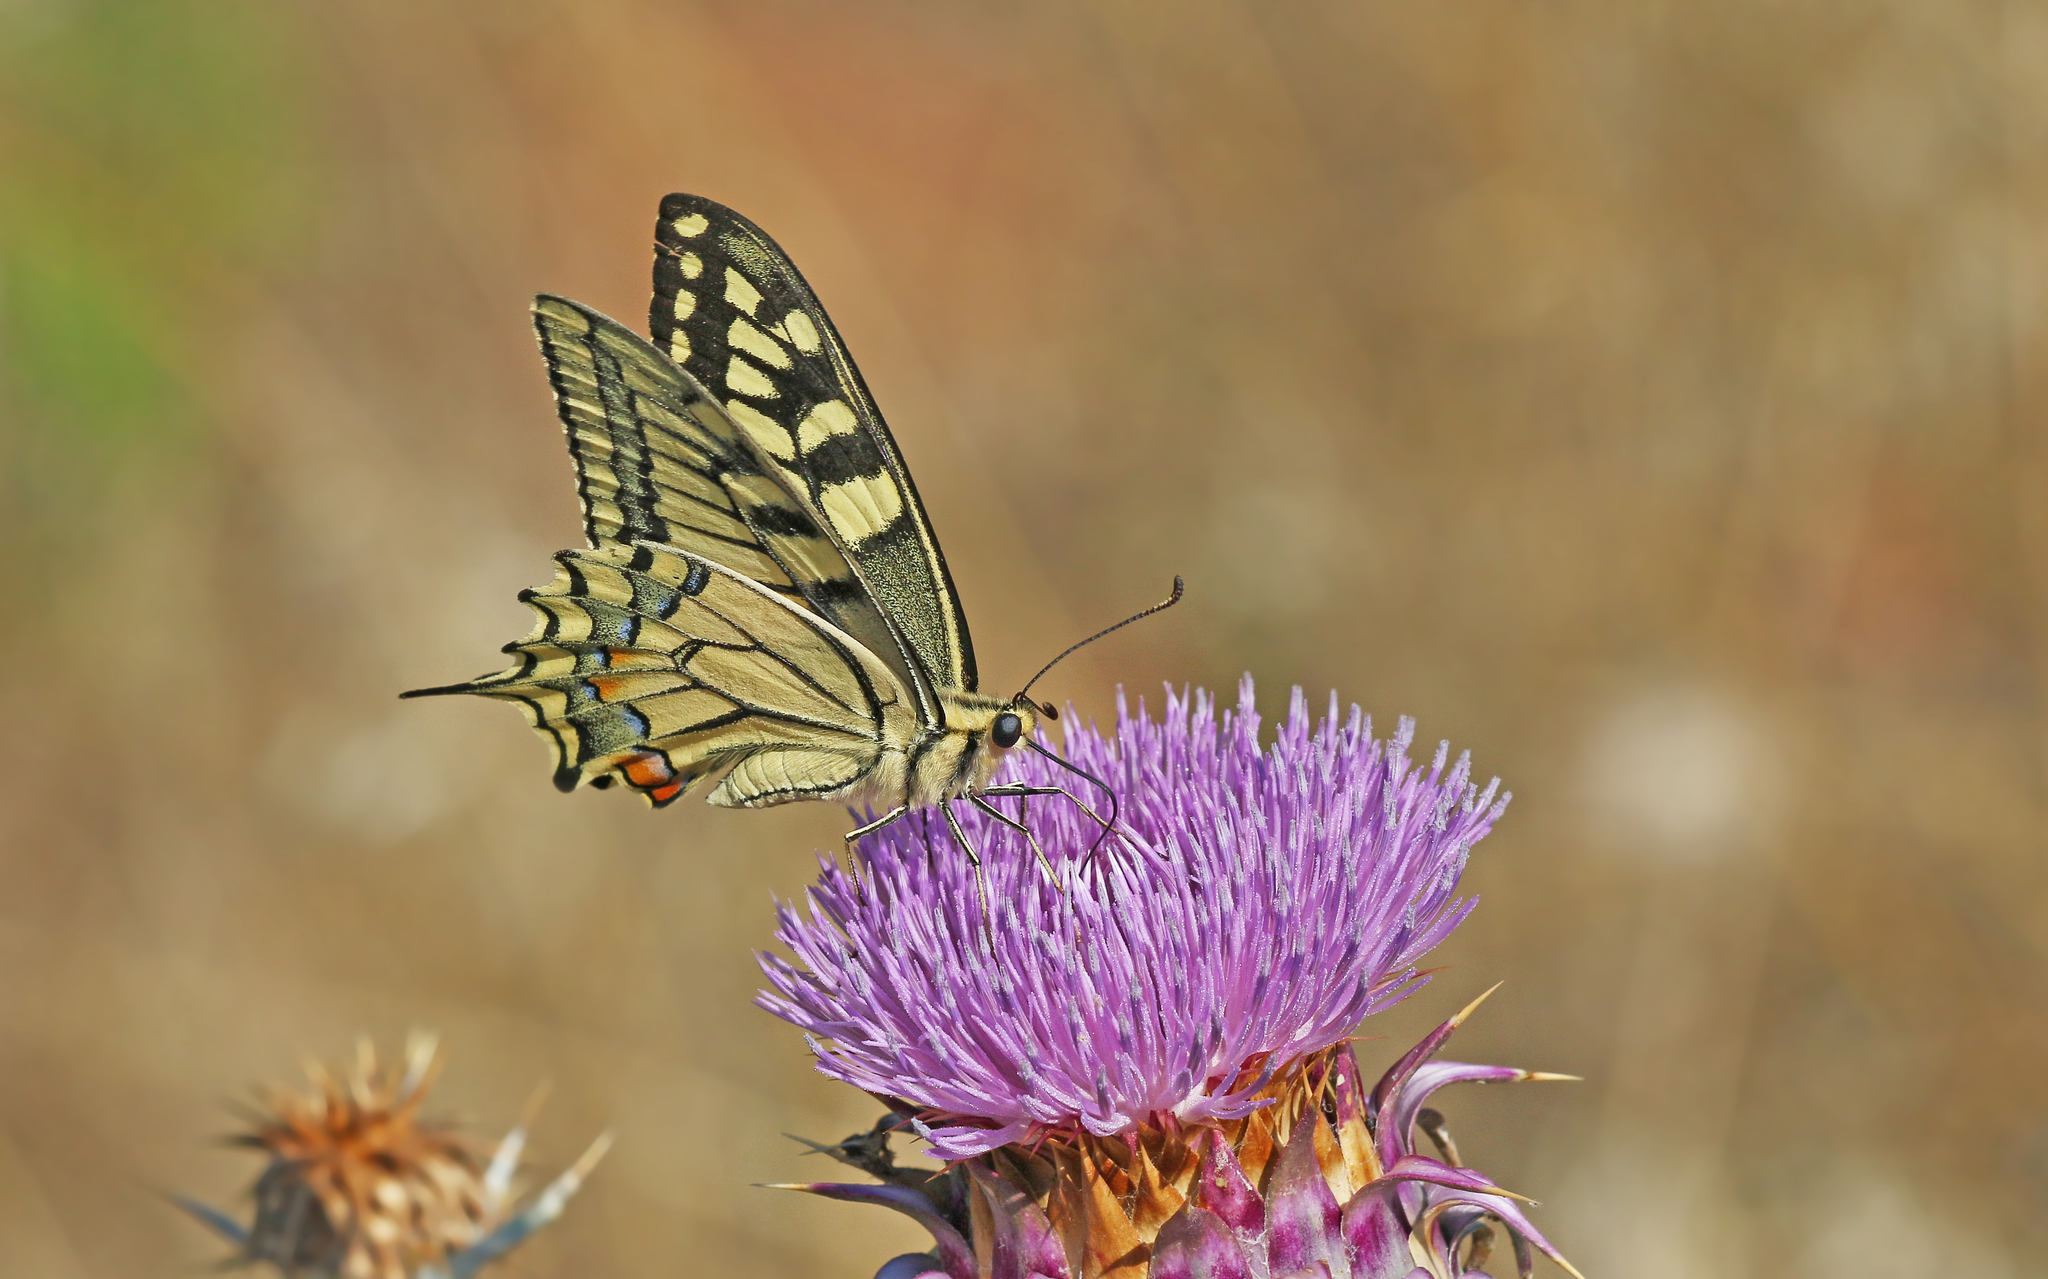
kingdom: Animalia
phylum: Arthropoda
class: Insecta
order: Lepidoptera
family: Papilionidae
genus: Papilio
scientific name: Papilio machaon
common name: Swallowtail
